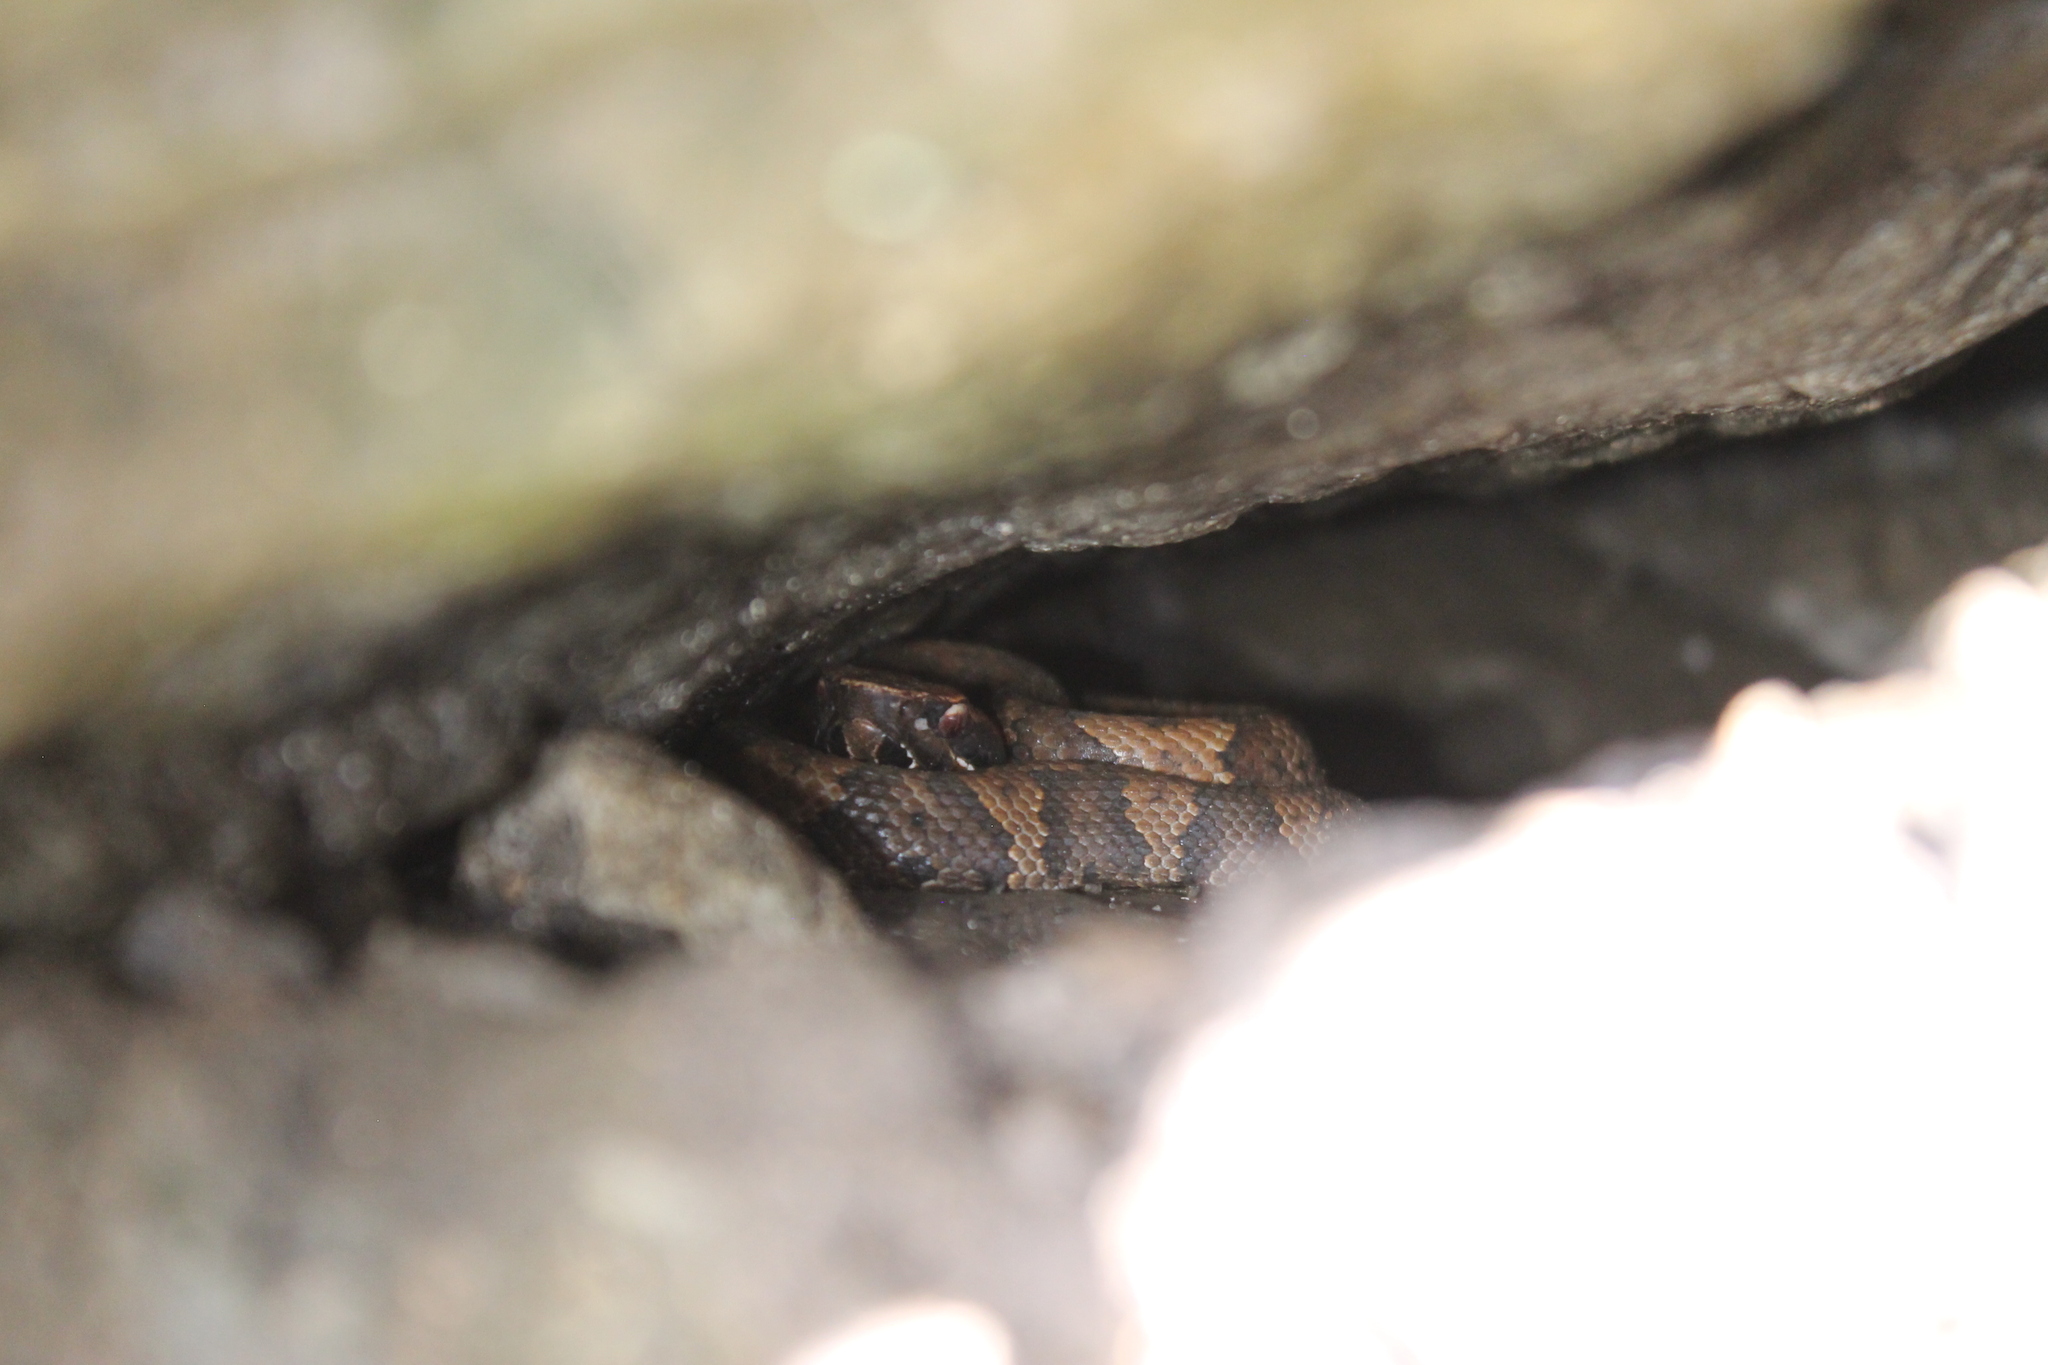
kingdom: Animalia
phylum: Chordata
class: Squamata
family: Viperidae
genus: Agkistrodon
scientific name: Agkistrodon piscivorus
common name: Cottonmouth
